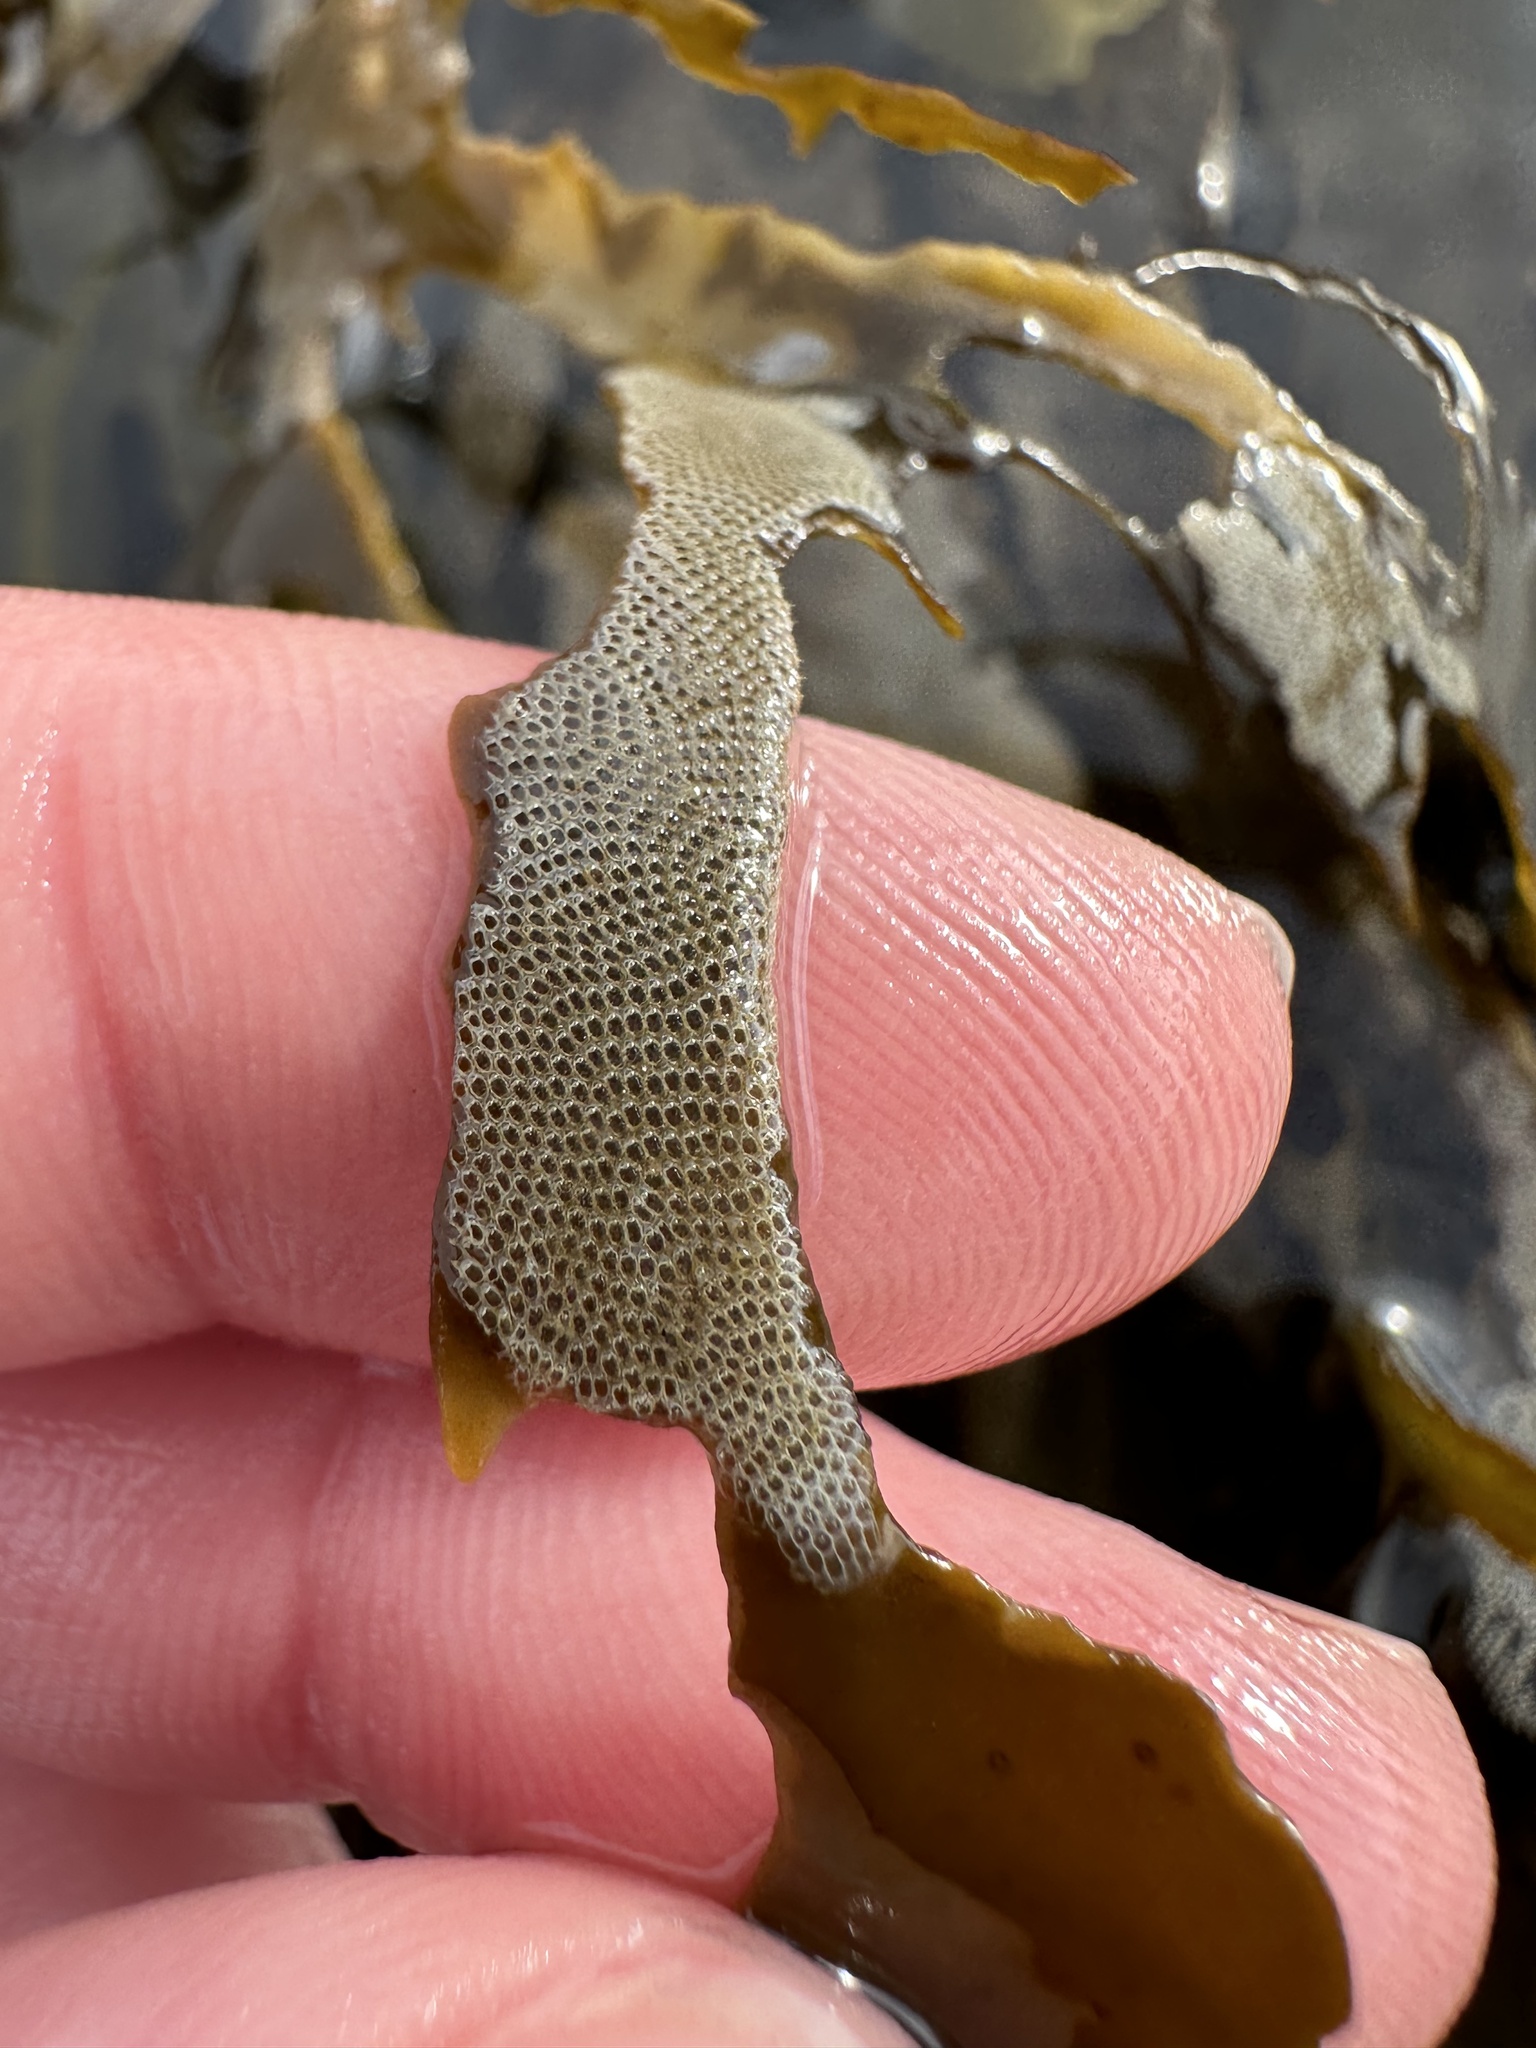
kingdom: Animalia
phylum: Bryozoa
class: Gymnolaemata
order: Cheilostomatida
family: Electridae
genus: Electra
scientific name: Electra pilosa
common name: Hairy sea-mat
